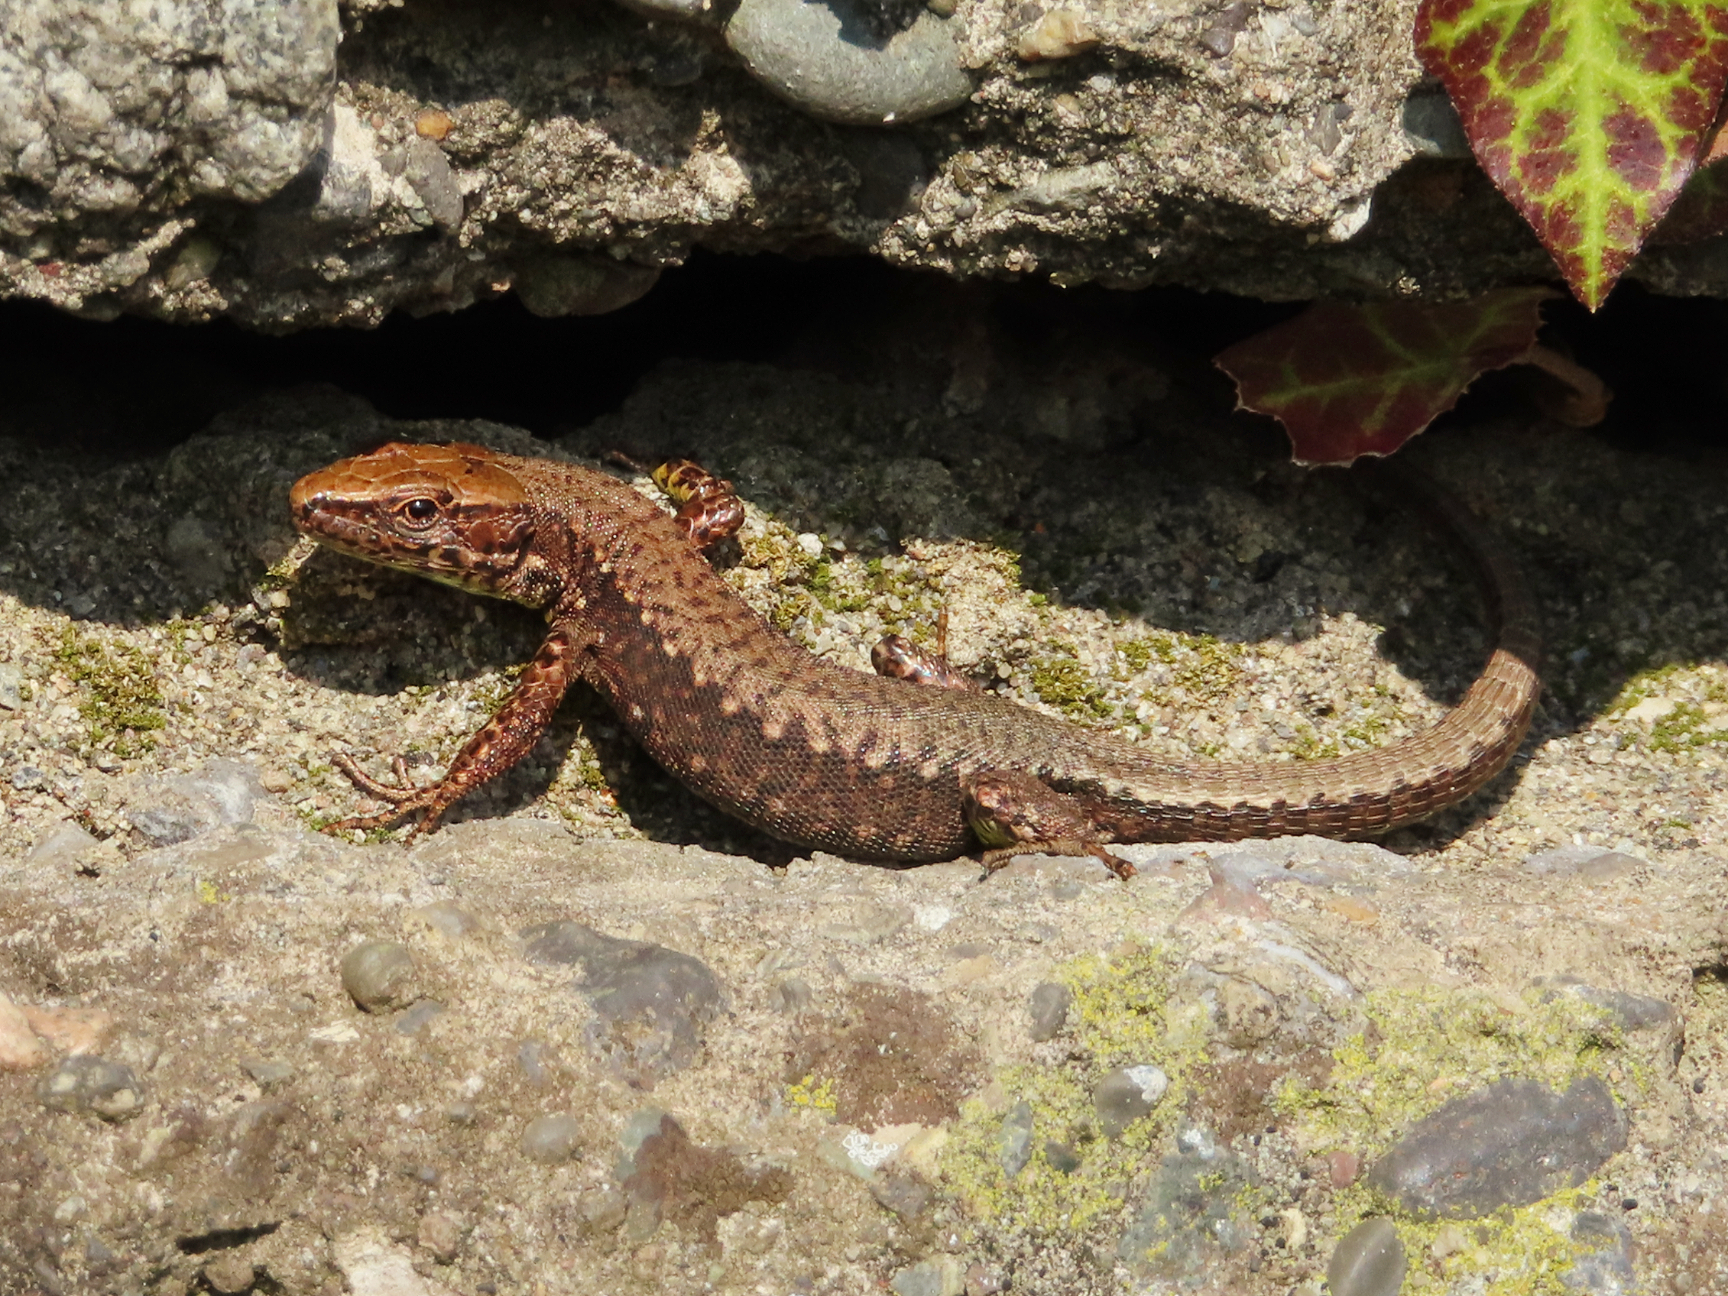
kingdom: Animalia
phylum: Chordata
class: Squamata
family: Lacertidae
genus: Darevskia
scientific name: Darevskia derjugini
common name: Derjugin's lizard
